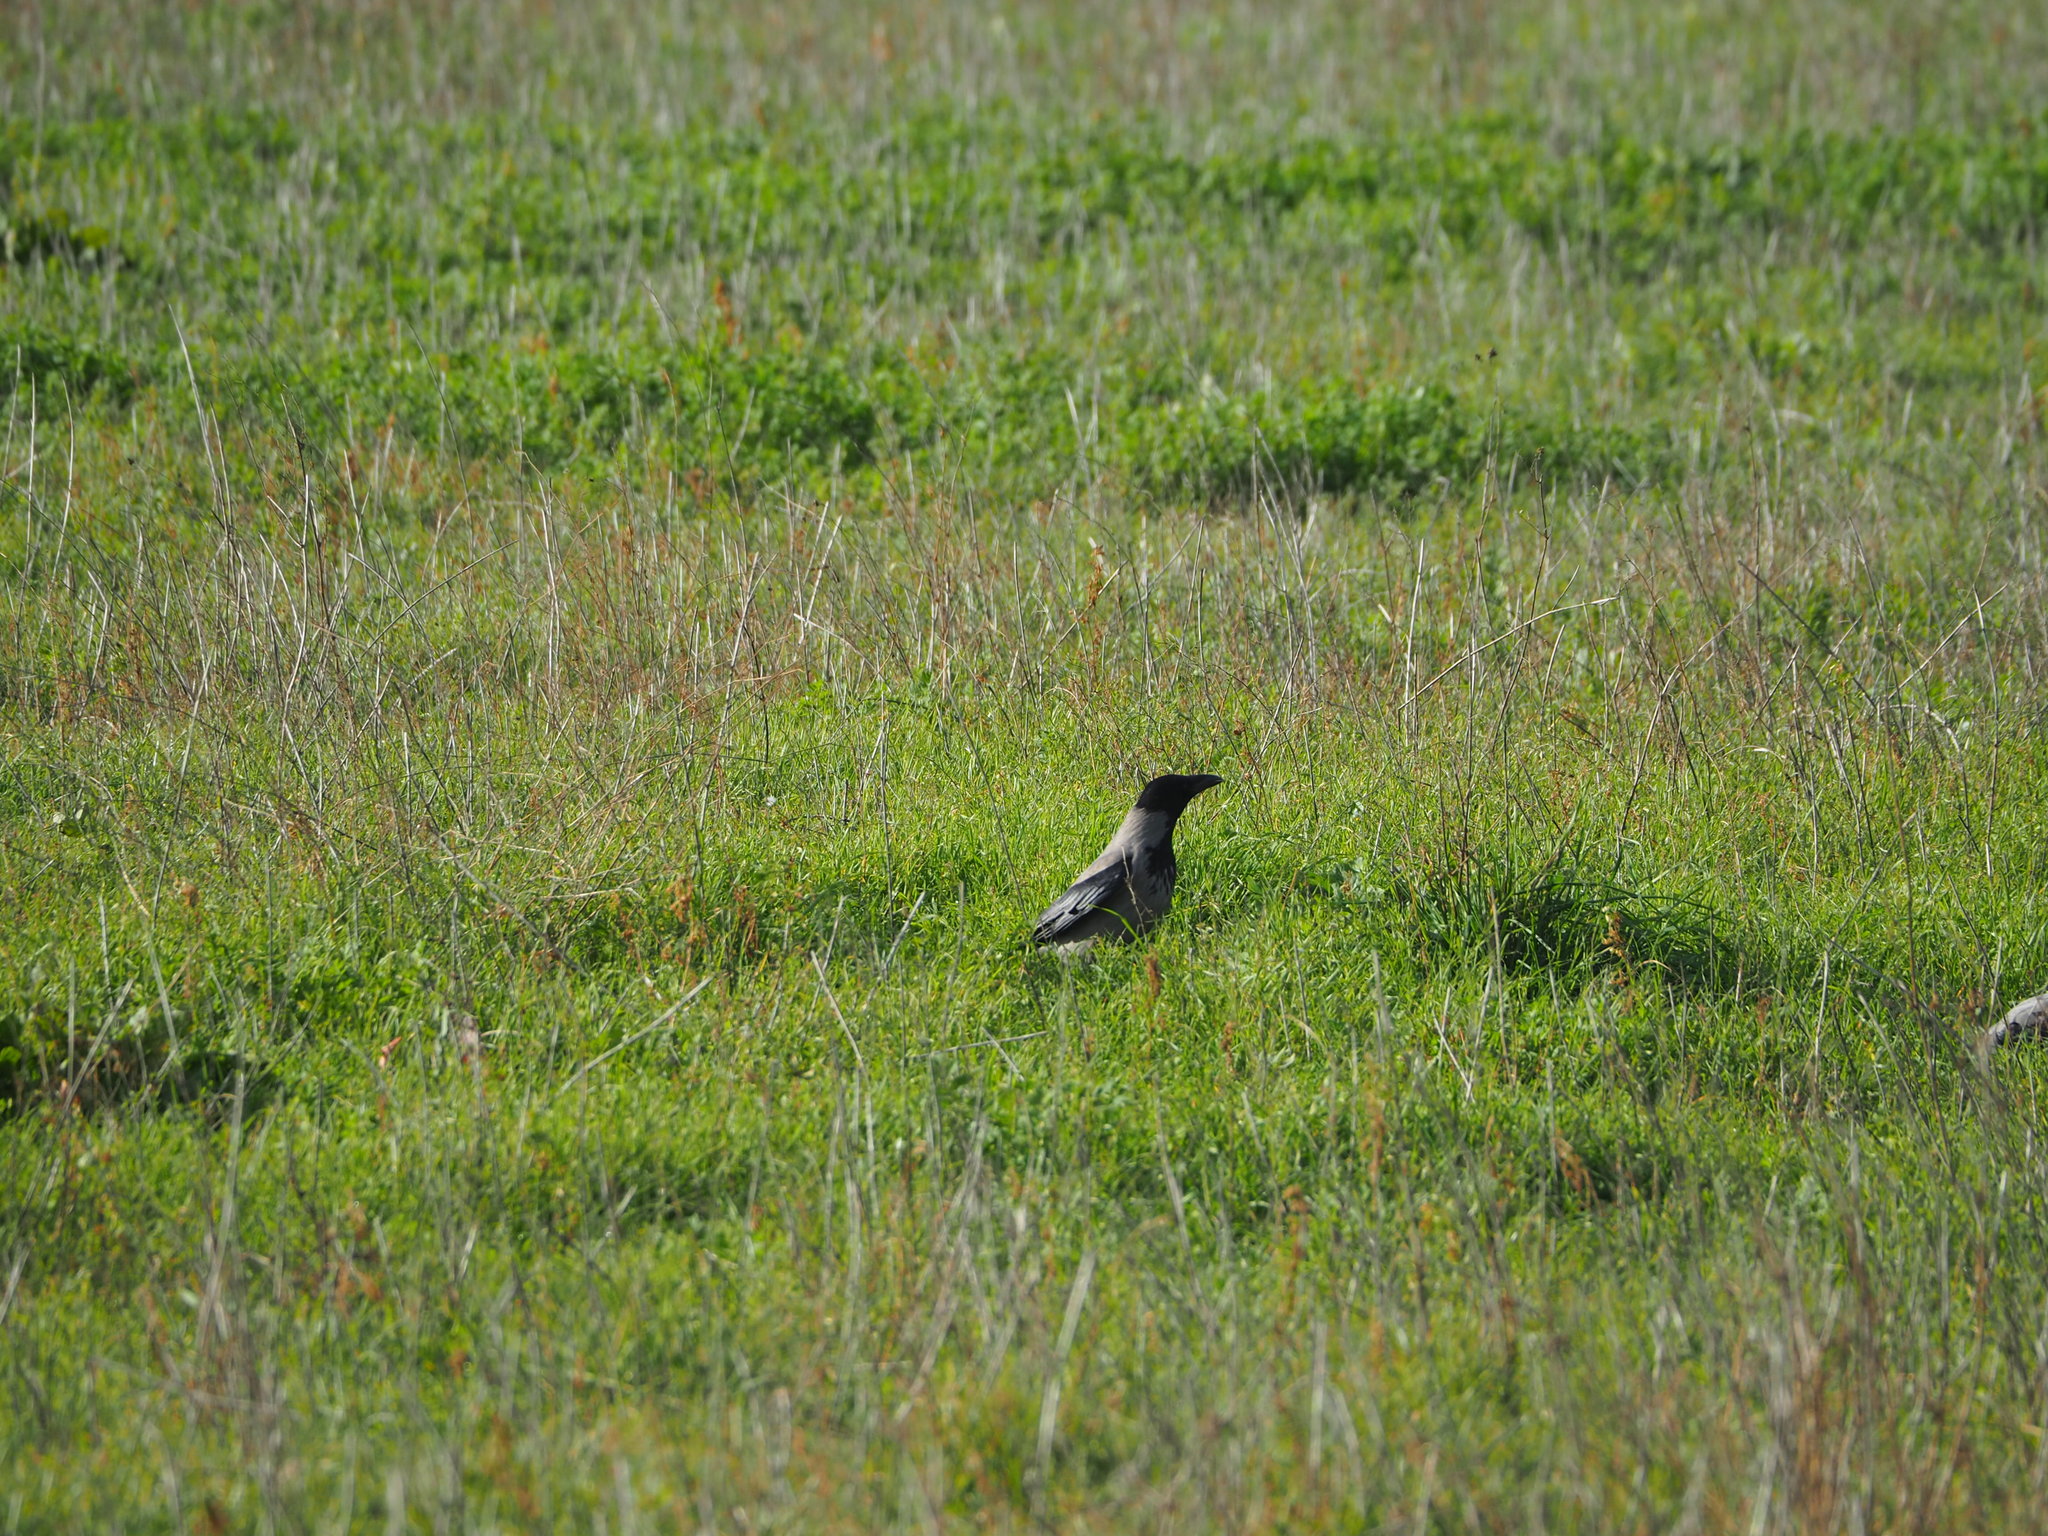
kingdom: Animalia
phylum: Chordata
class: Aves
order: Passeriformes
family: Corvidae
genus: Corvus
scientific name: Corvus cornix
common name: Hooded crow
